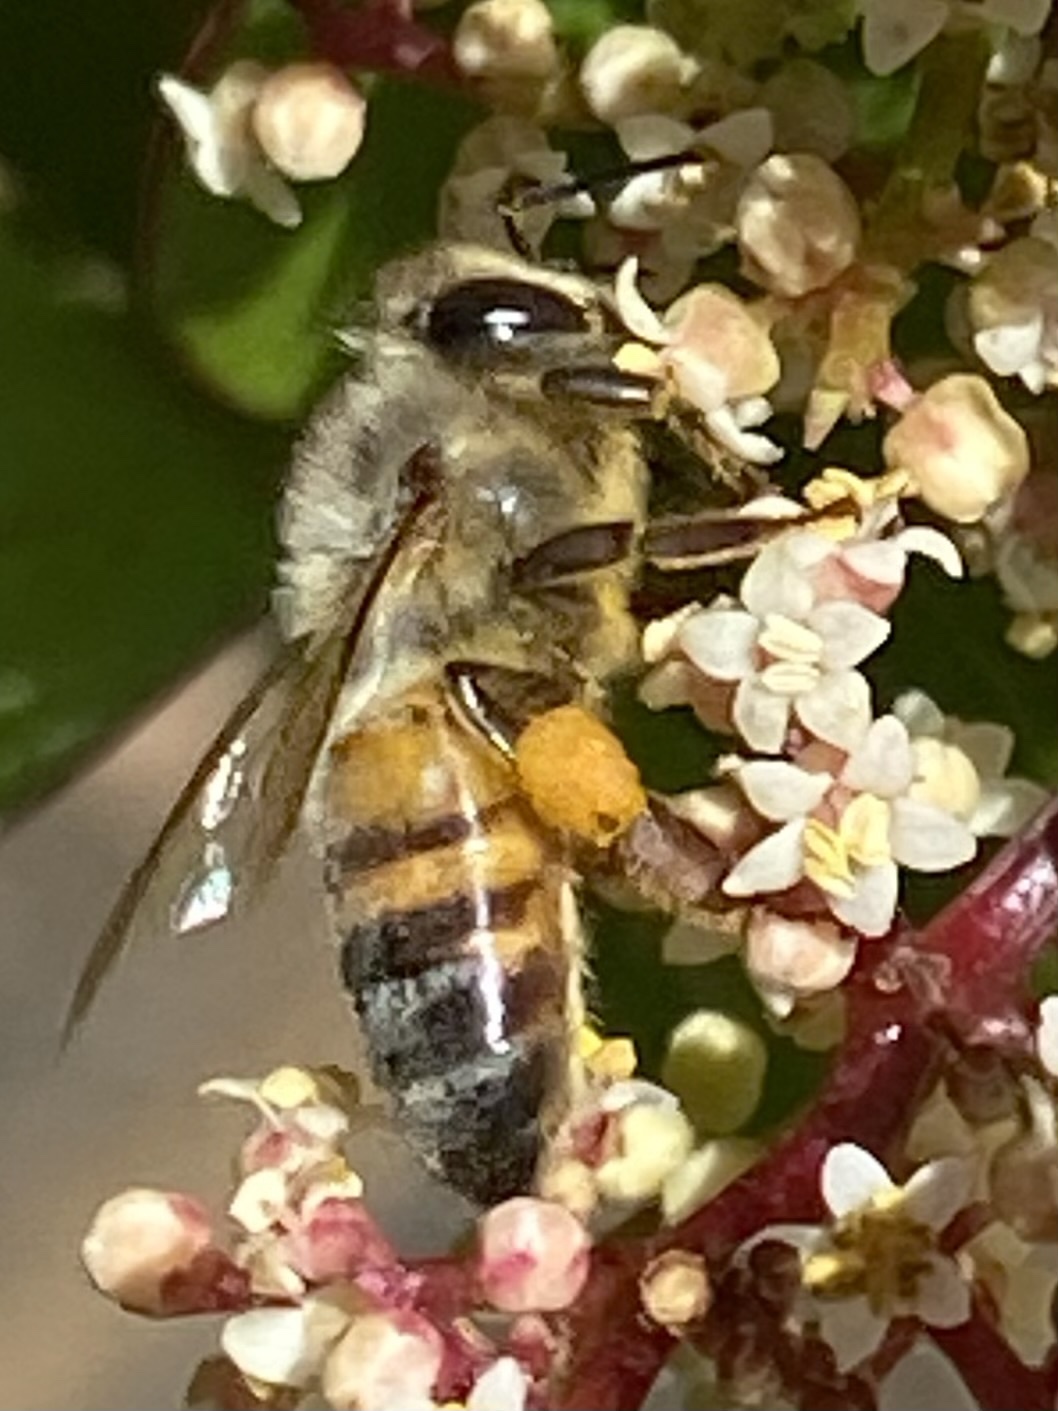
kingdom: Animalia
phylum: Arthropoda
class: Insecta
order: Hymenoptera
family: Apidae
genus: Apis
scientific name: Apis mellifera
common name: Honey bee
